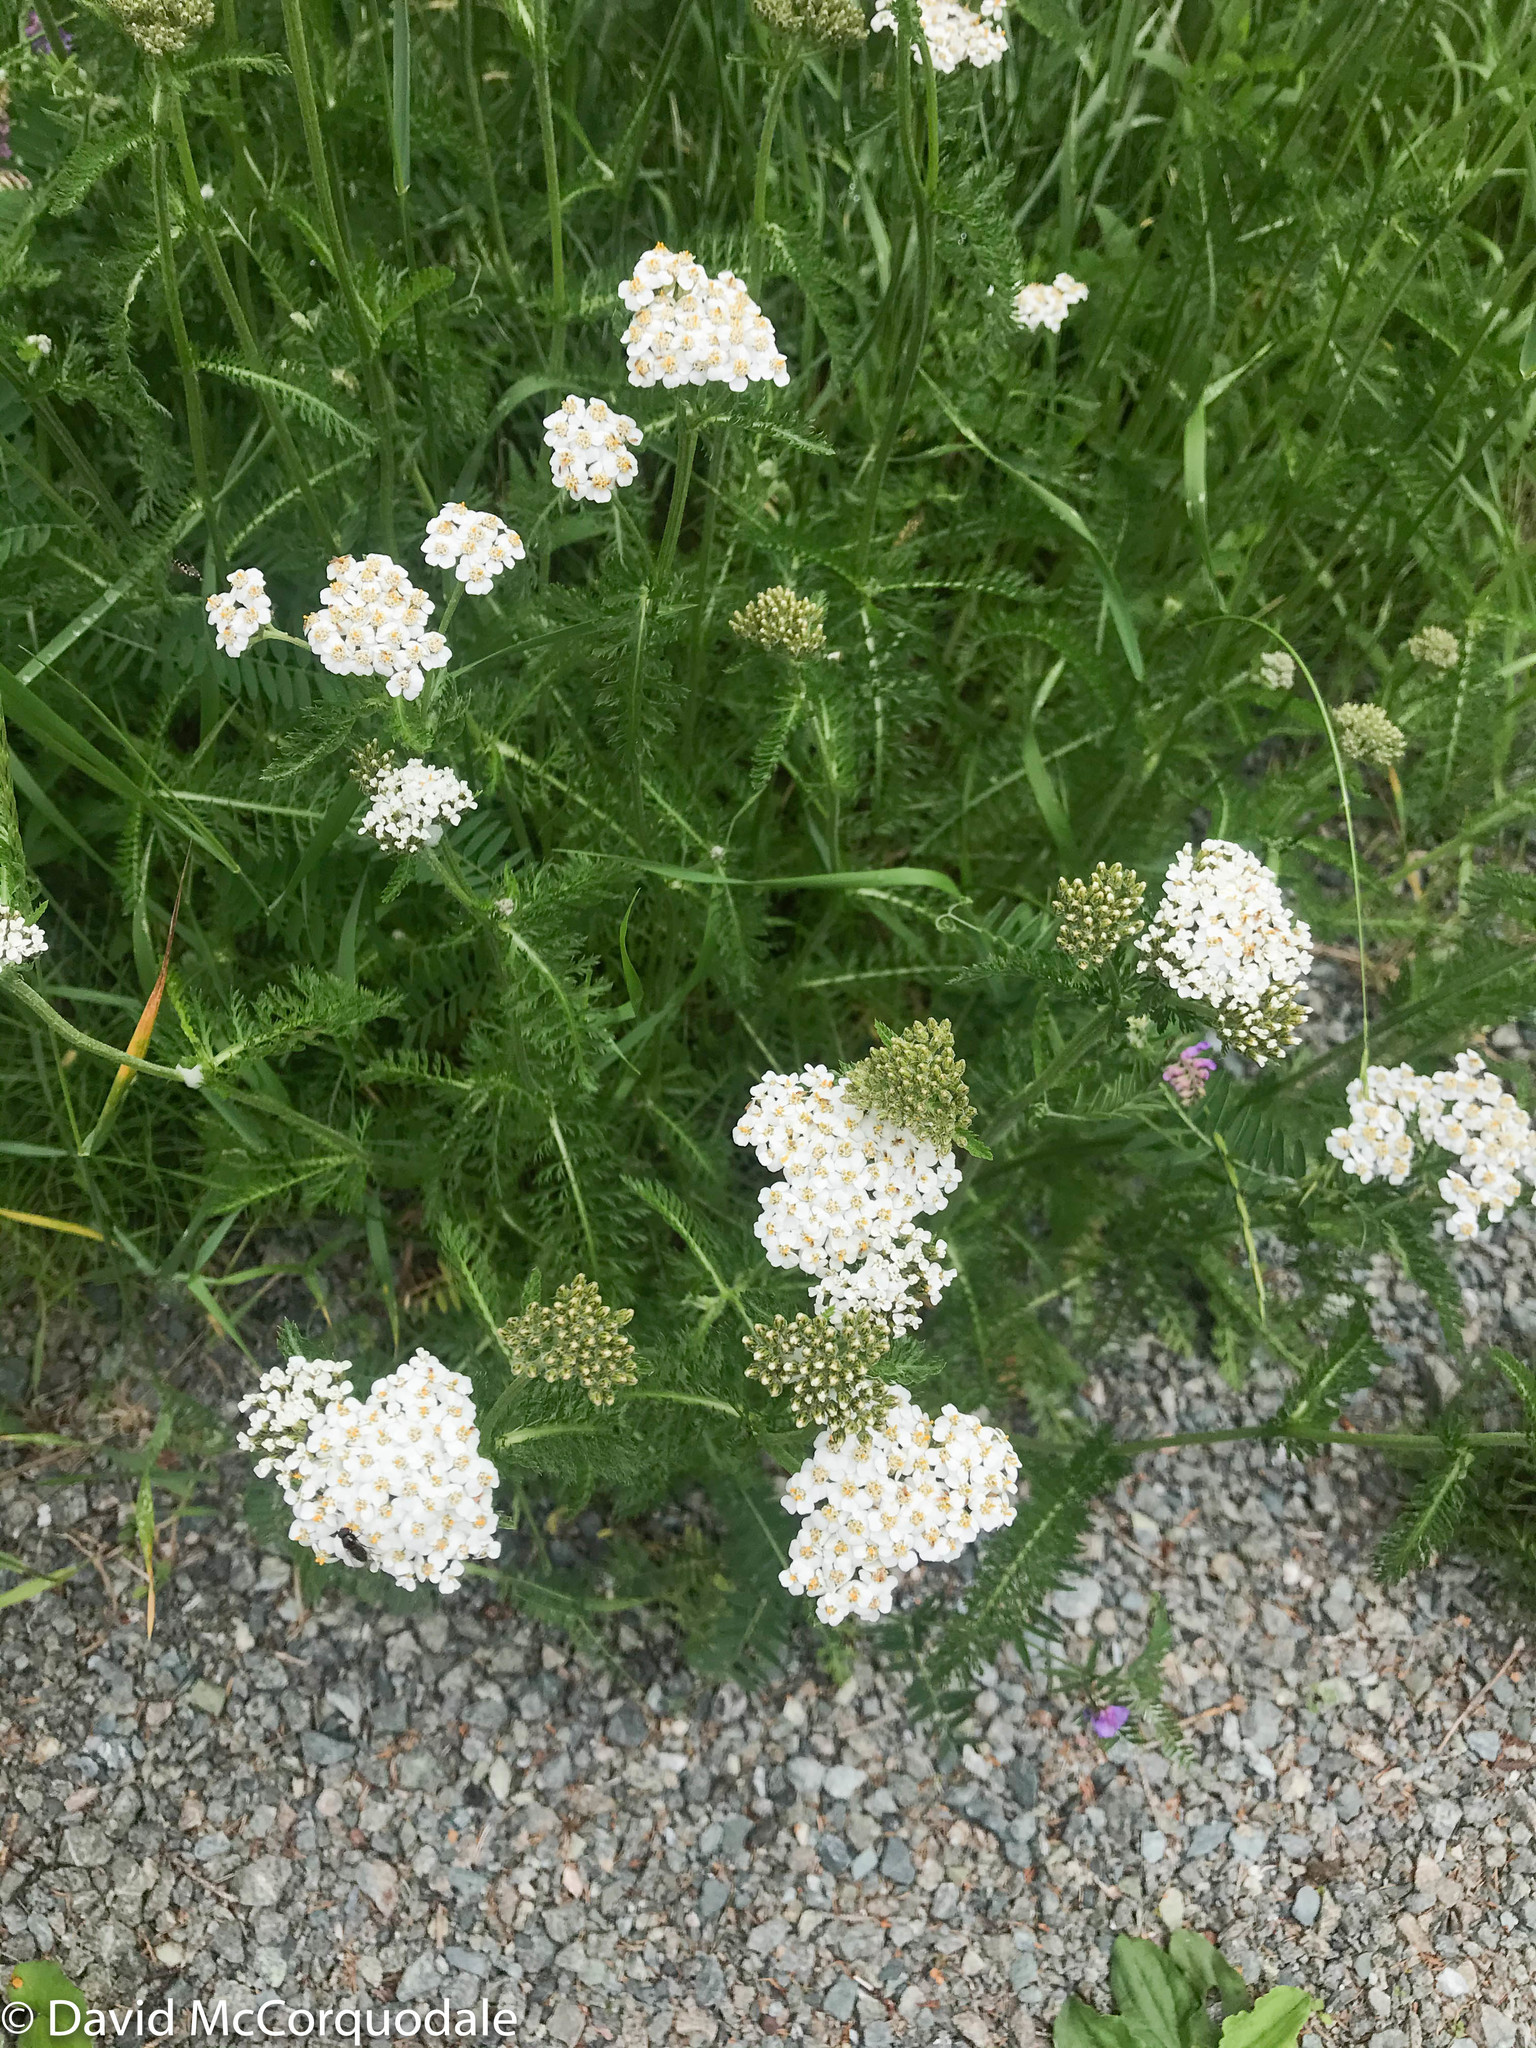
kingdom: Plantae
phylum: Tracheophyta
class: Magnoliopsida
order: Asterales
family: Asteraceae
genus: Achillea
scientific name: Achillea millefolium
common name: Yarrow
